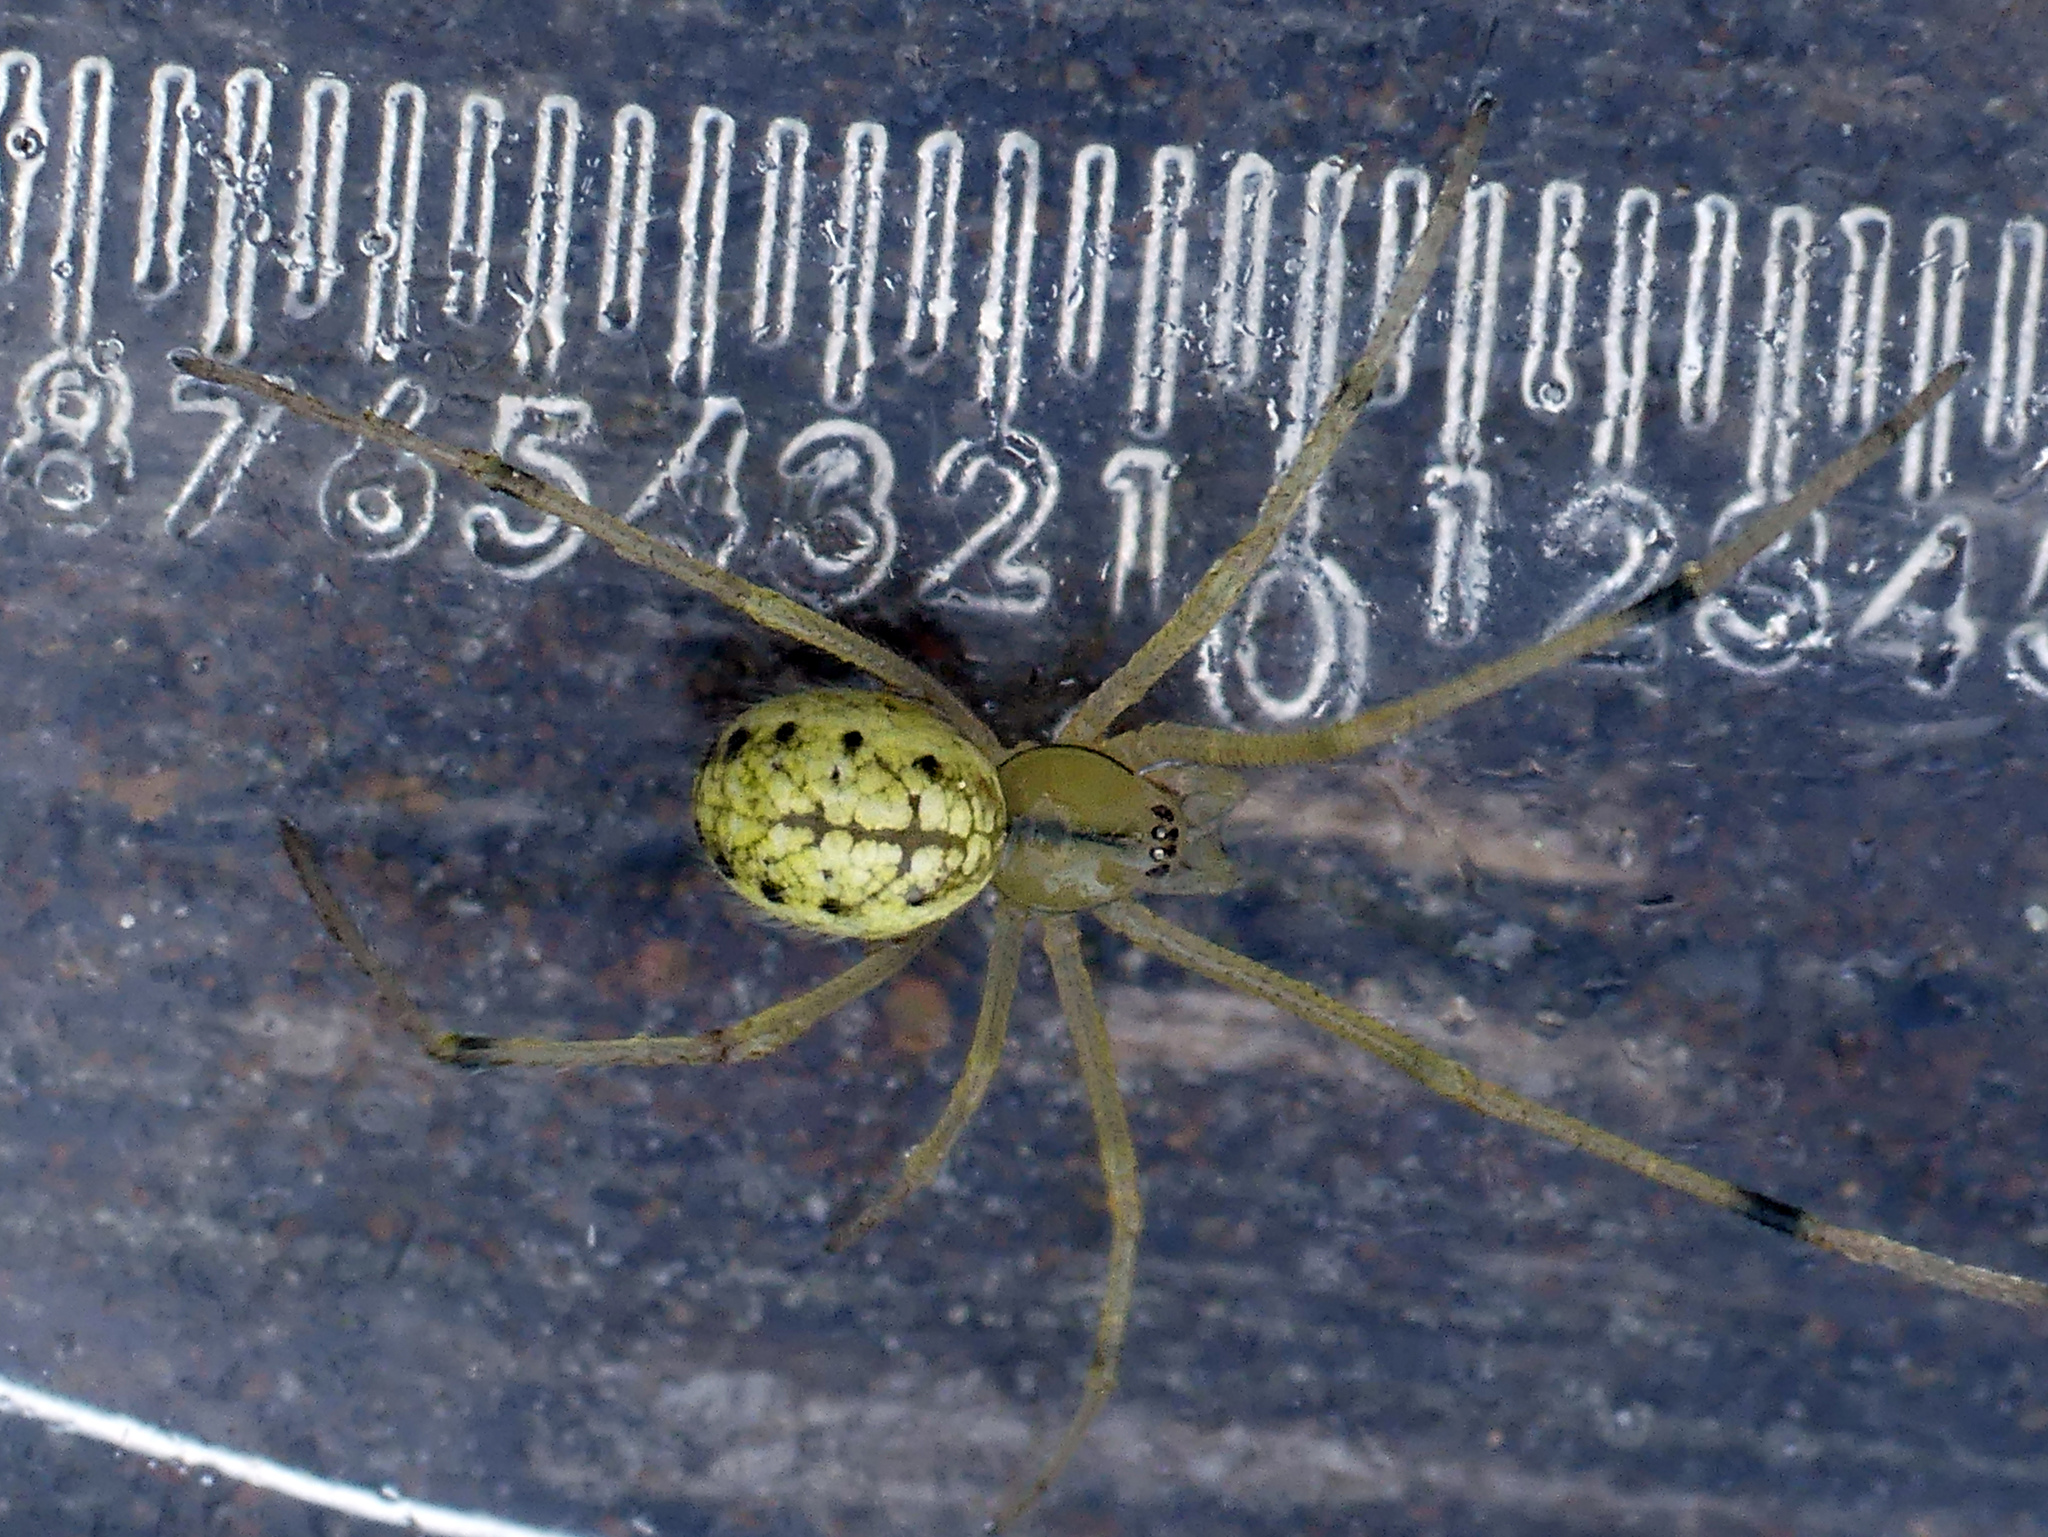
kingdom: Animalia
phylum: Arthropoda
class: Arachnida
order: Araneae
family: Theridiidae
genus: Enoplognatha
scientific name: Enoplognatha ovata
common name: Common candy-striped spider
